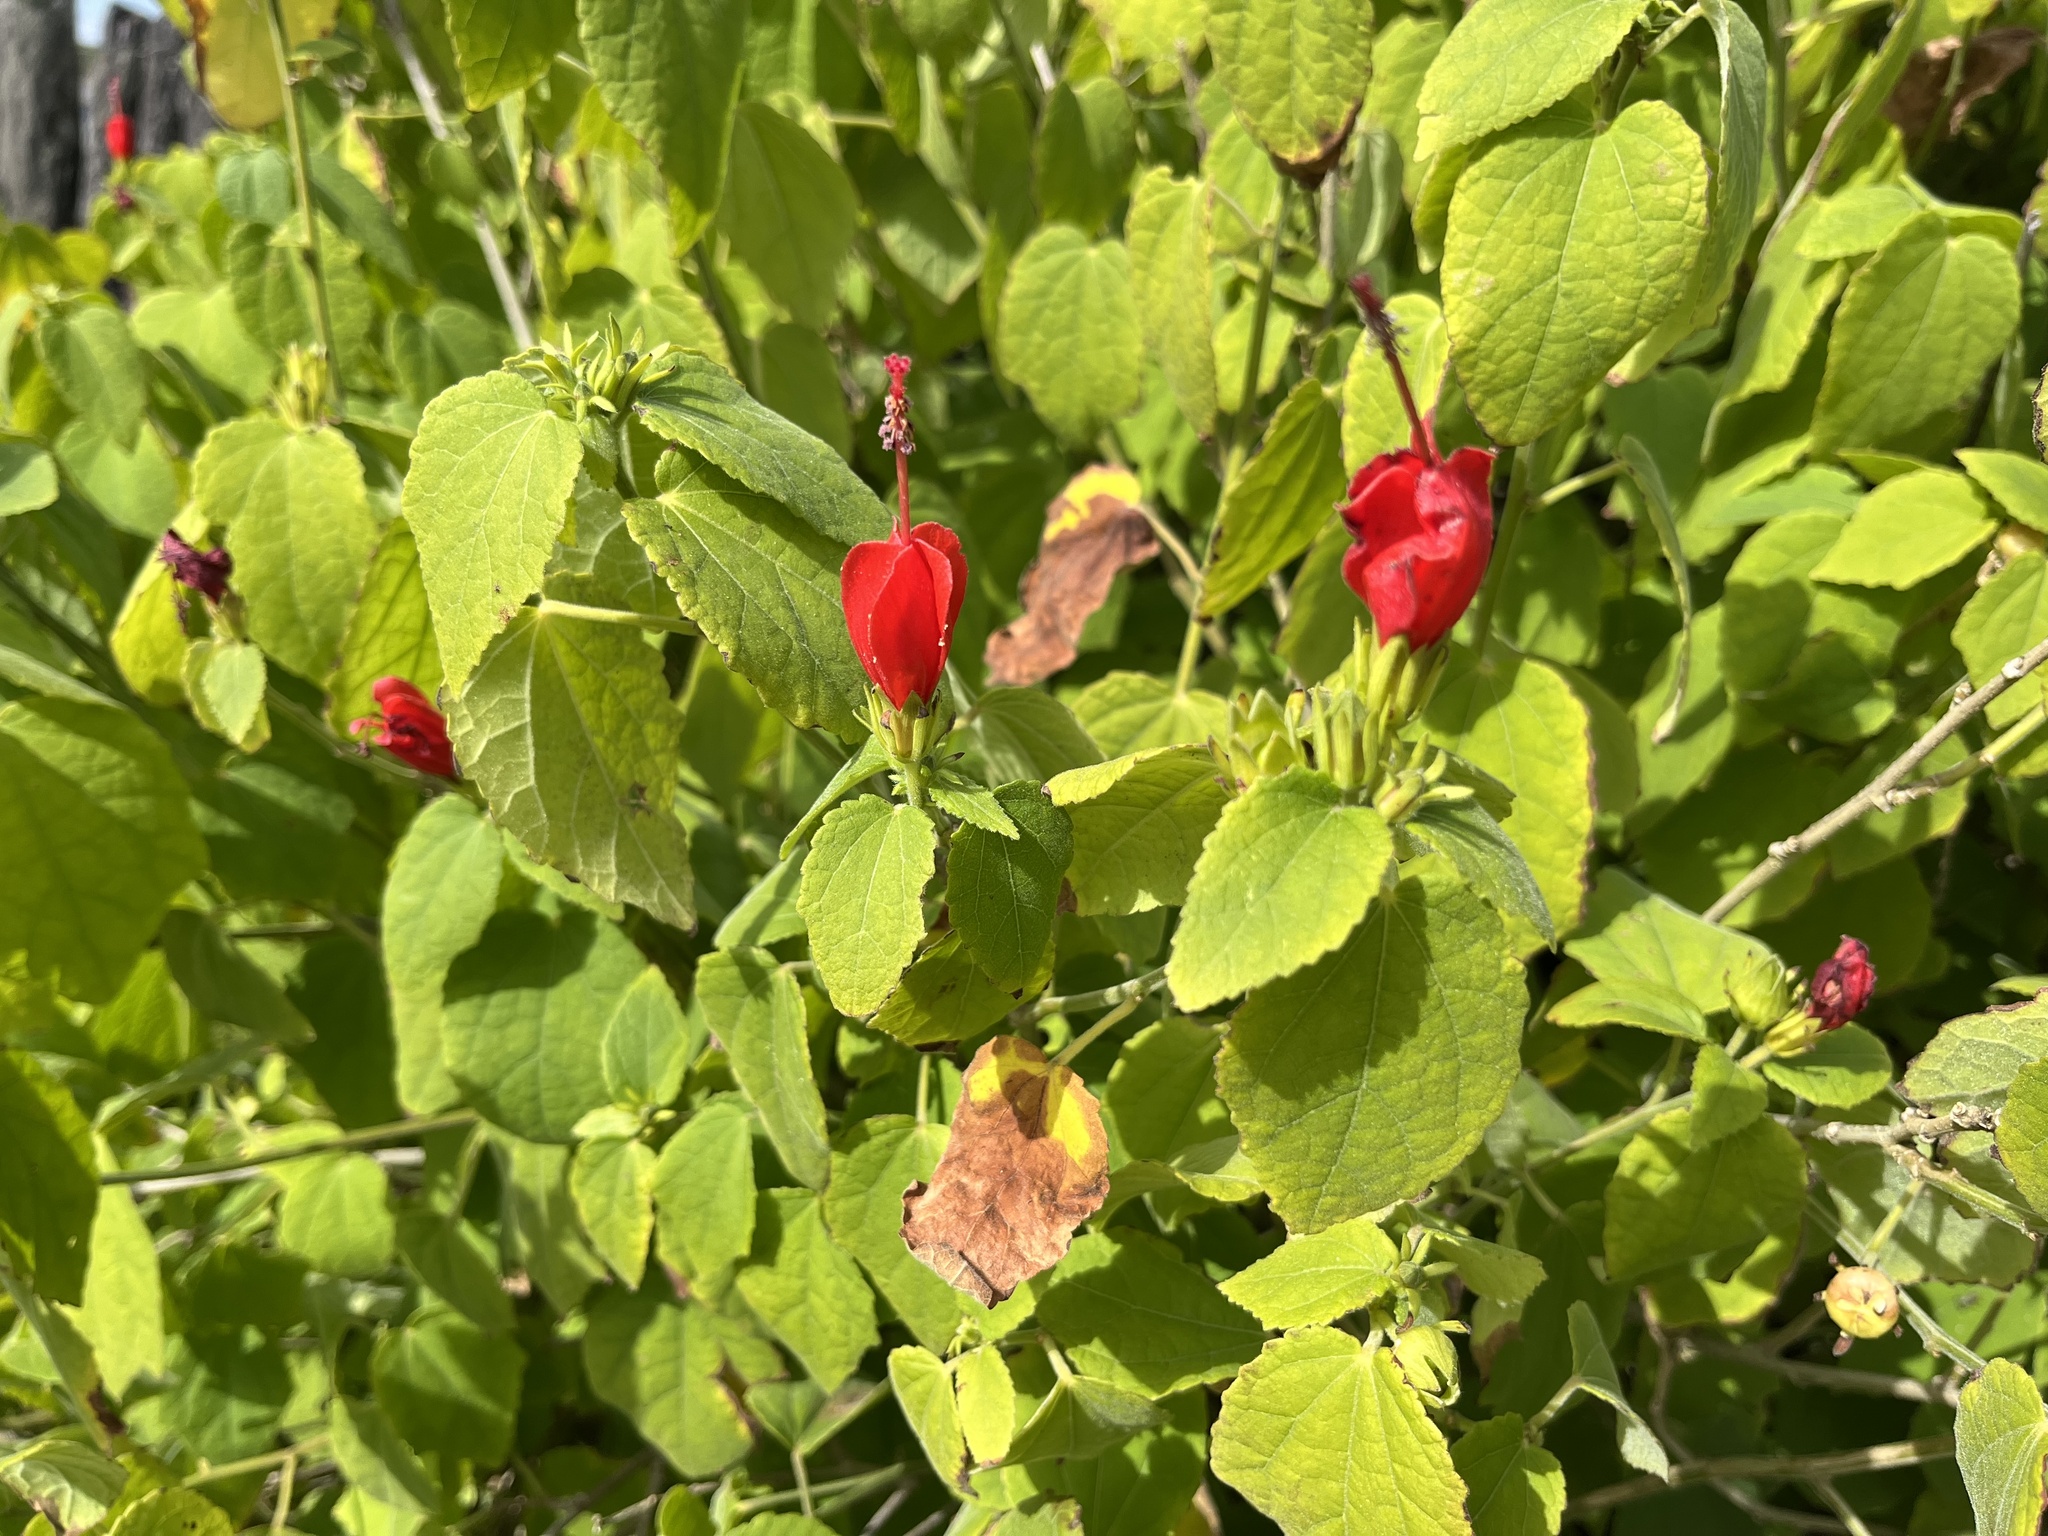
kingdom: Plantae
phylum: Tracheophyta
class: Magnoliopsida
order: Malvales
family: Malvaceae
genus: Malvaviscus
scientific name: Malvaviscus arboreus
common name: Wax mallow
